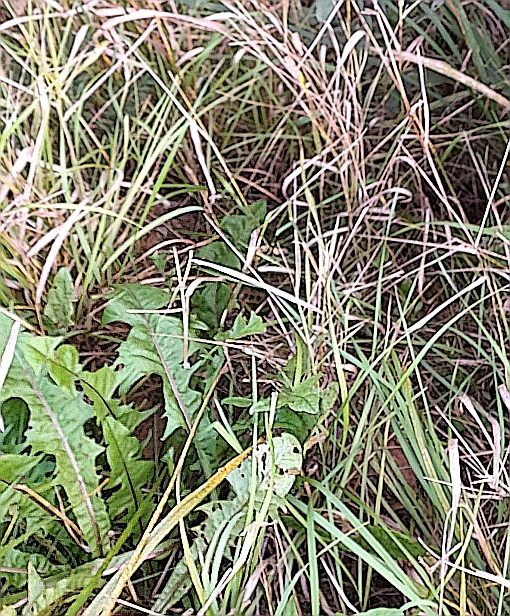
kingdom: Plantae
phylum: Tracheophyta
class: Magnoliopsida
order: Asterales
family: Asteraceae
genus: Taraxacum
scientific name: Taraxacum officinale
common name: Common dandelion
